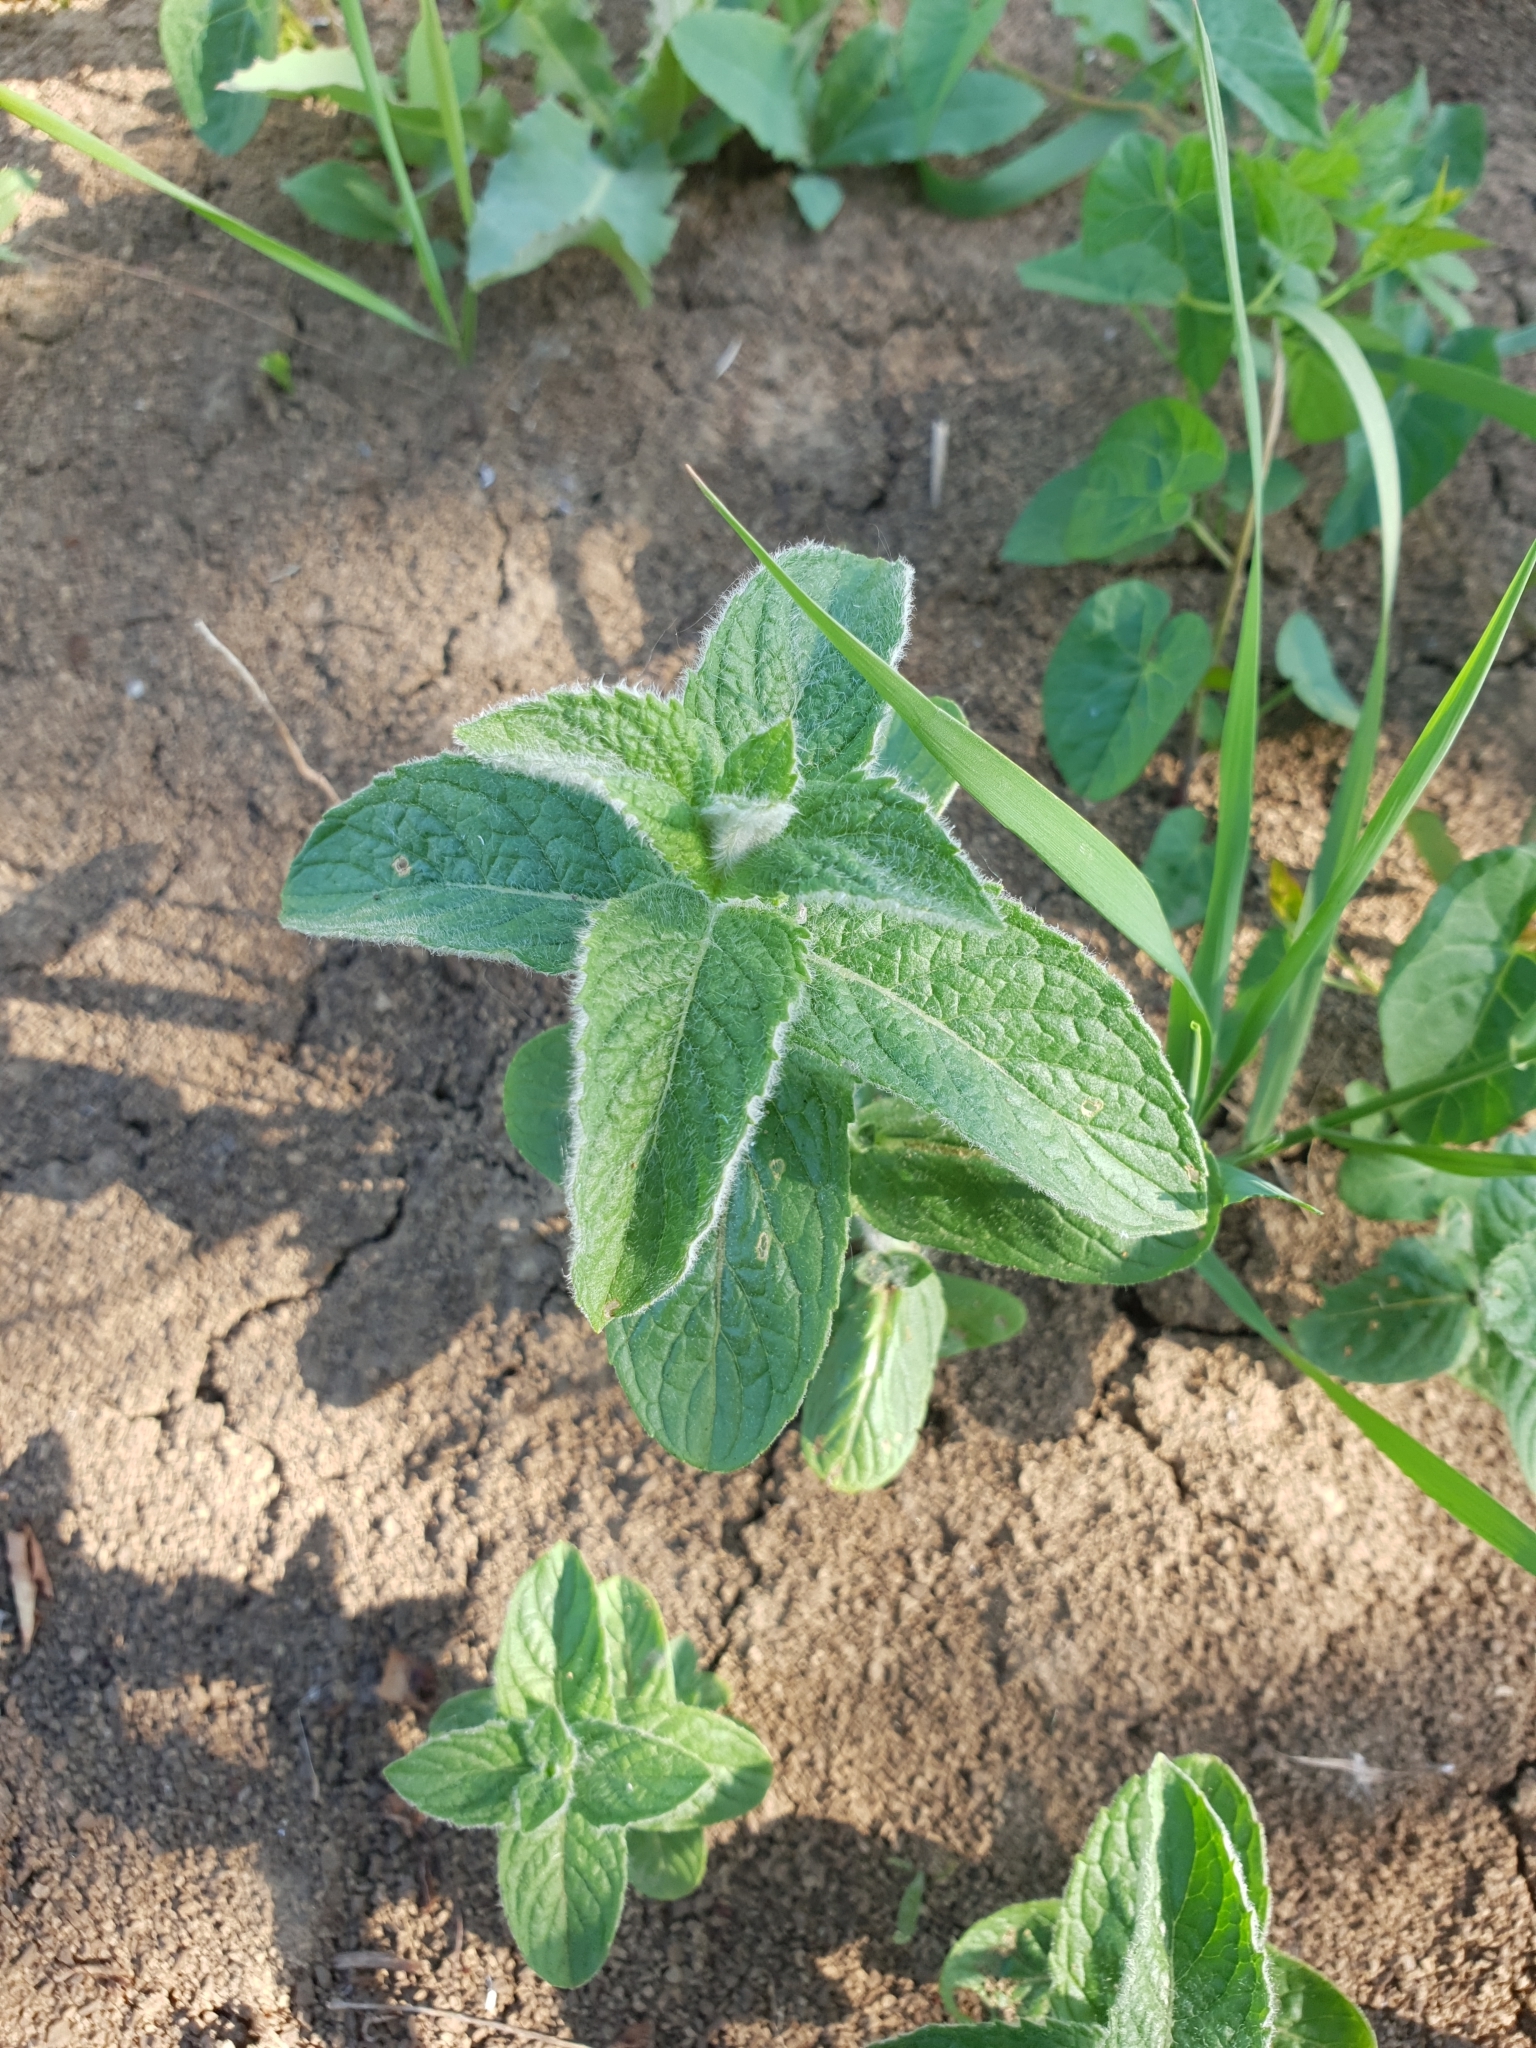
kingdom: Plantae
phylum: Tracheophyta
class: Magnoliopsida
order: Lamiales
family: Lamiaceae
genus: Mentha
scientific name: Mentha longifolia
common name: Horse mint
